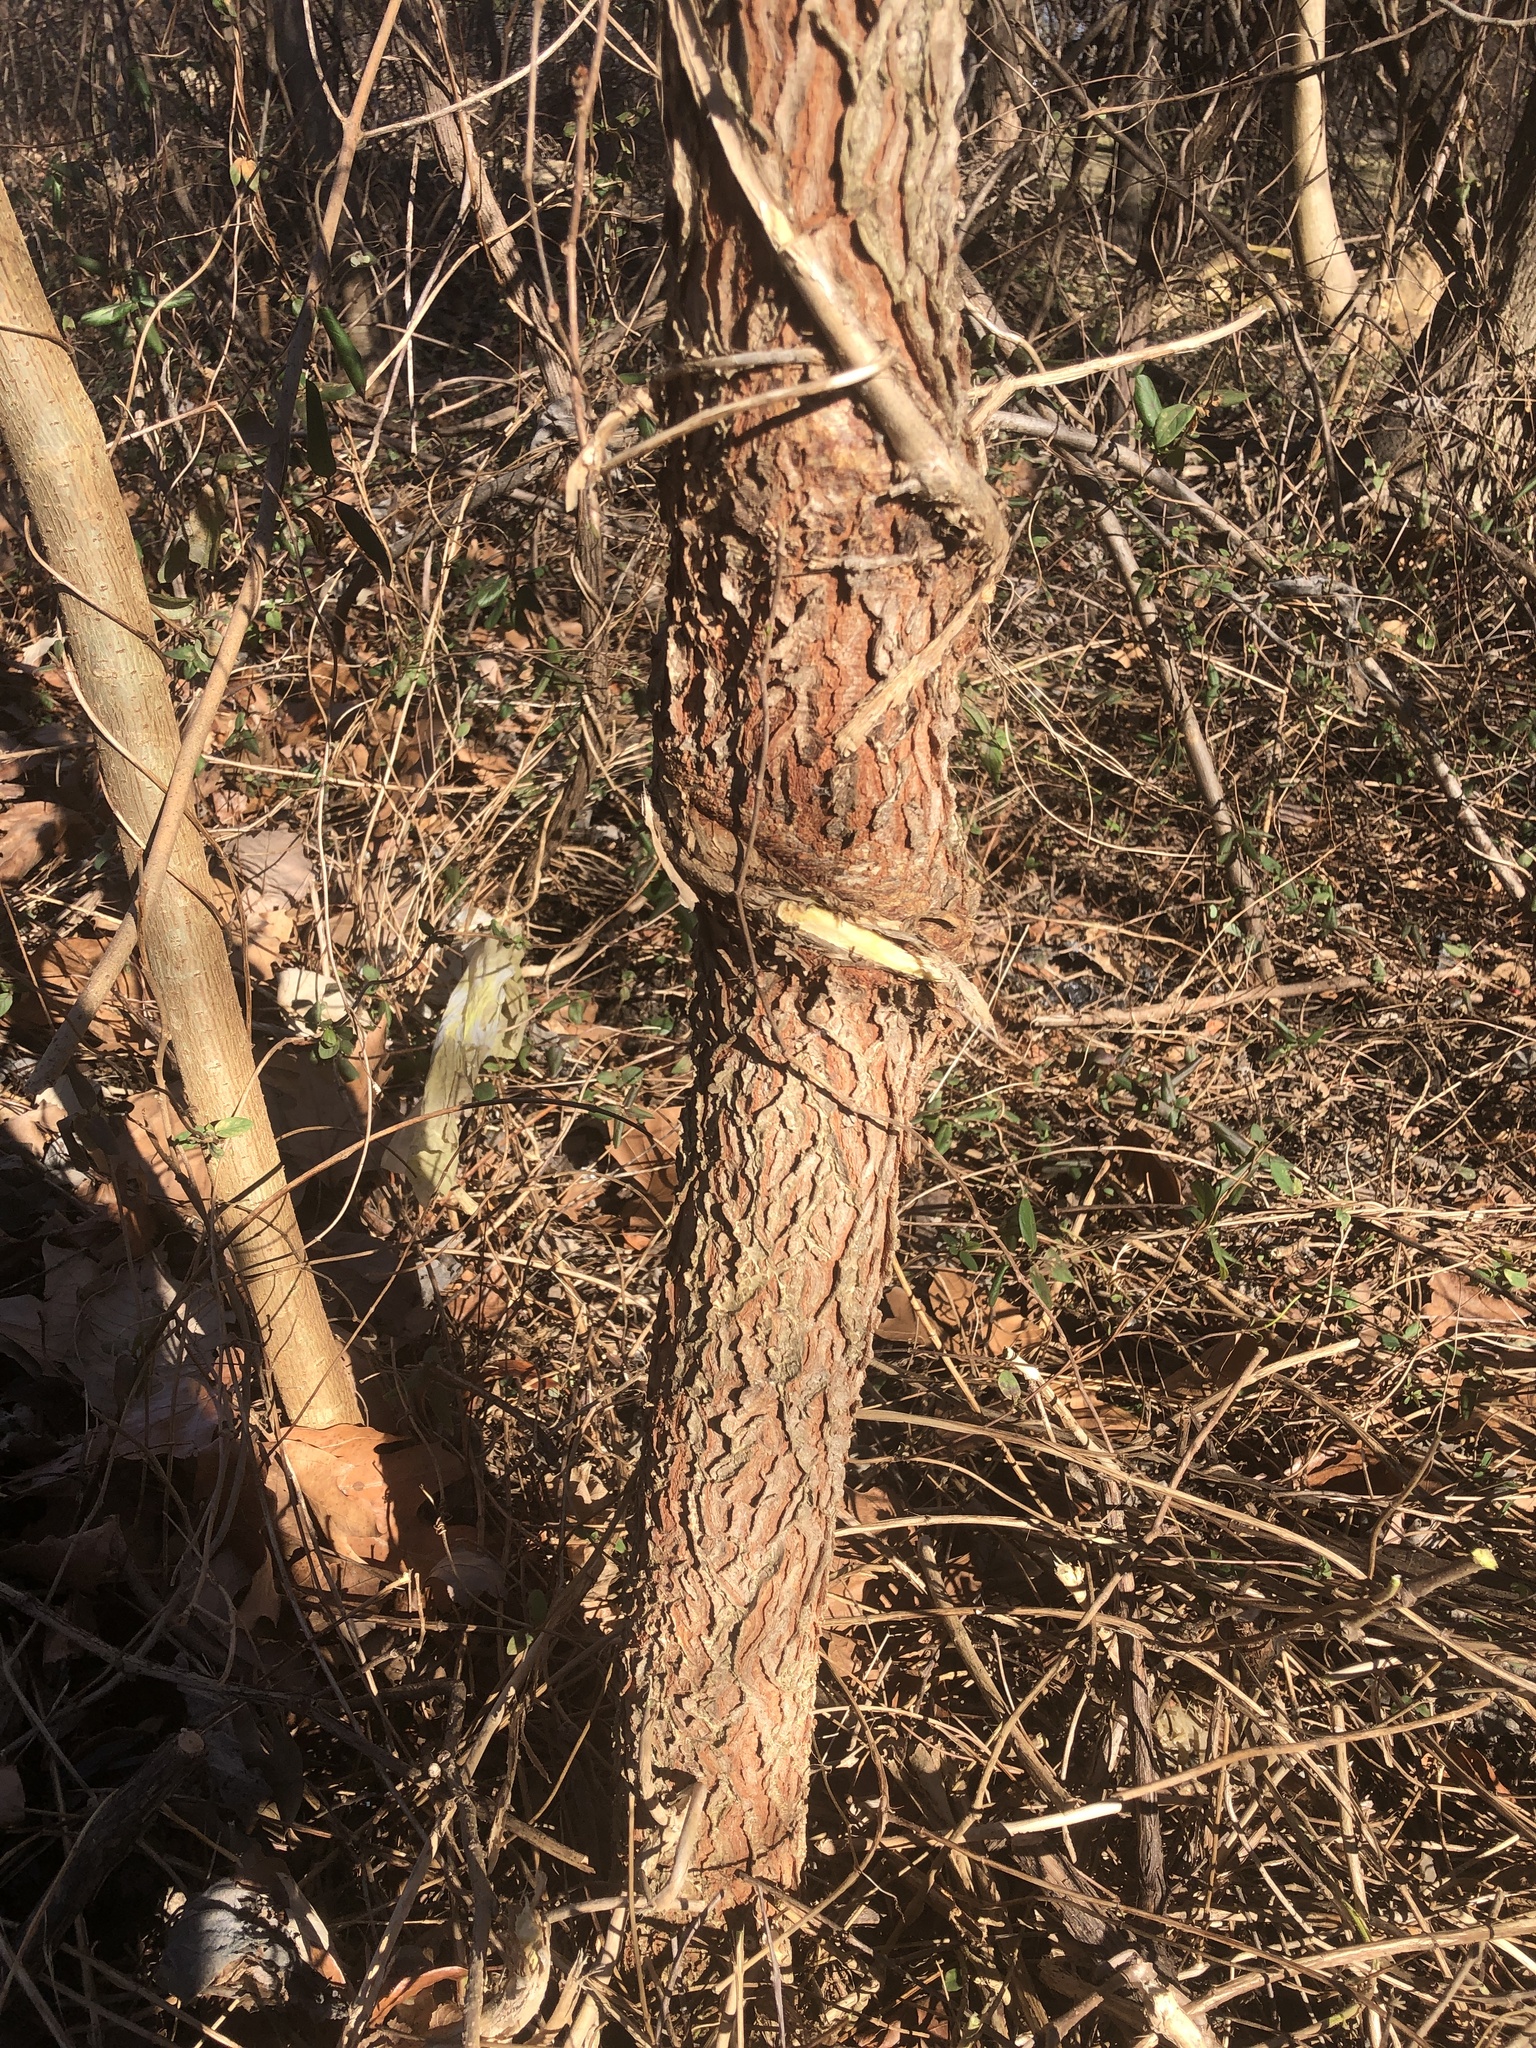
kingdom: Plantae
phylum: Tracheophyta
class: Magnoliopsida
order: Fabales
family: Fabaceae
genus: Gymnocladus
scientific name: Gymnocladus dioicus
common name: Kentucky coffee-tree
